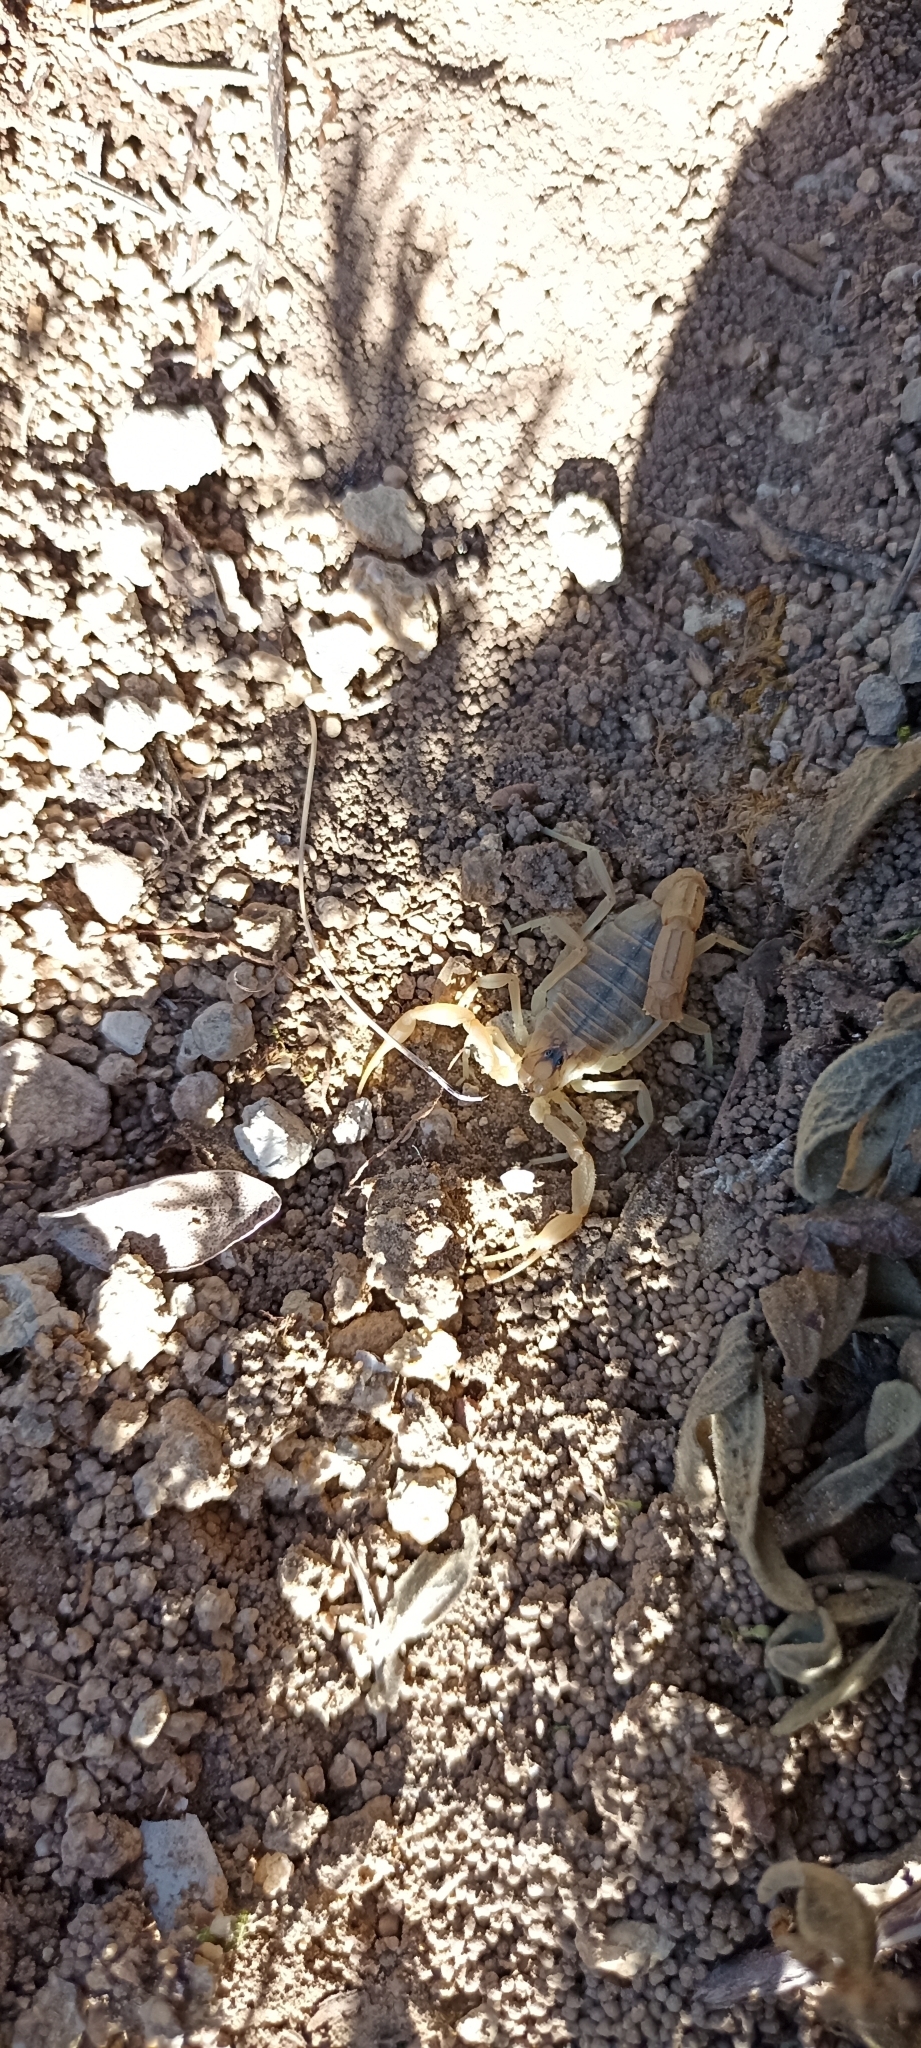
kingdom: Animalia
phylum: Arthropoda
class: Arachnida
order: Scorpiones
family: Buthidae
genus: Buthus
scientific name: Buthus occitanus
